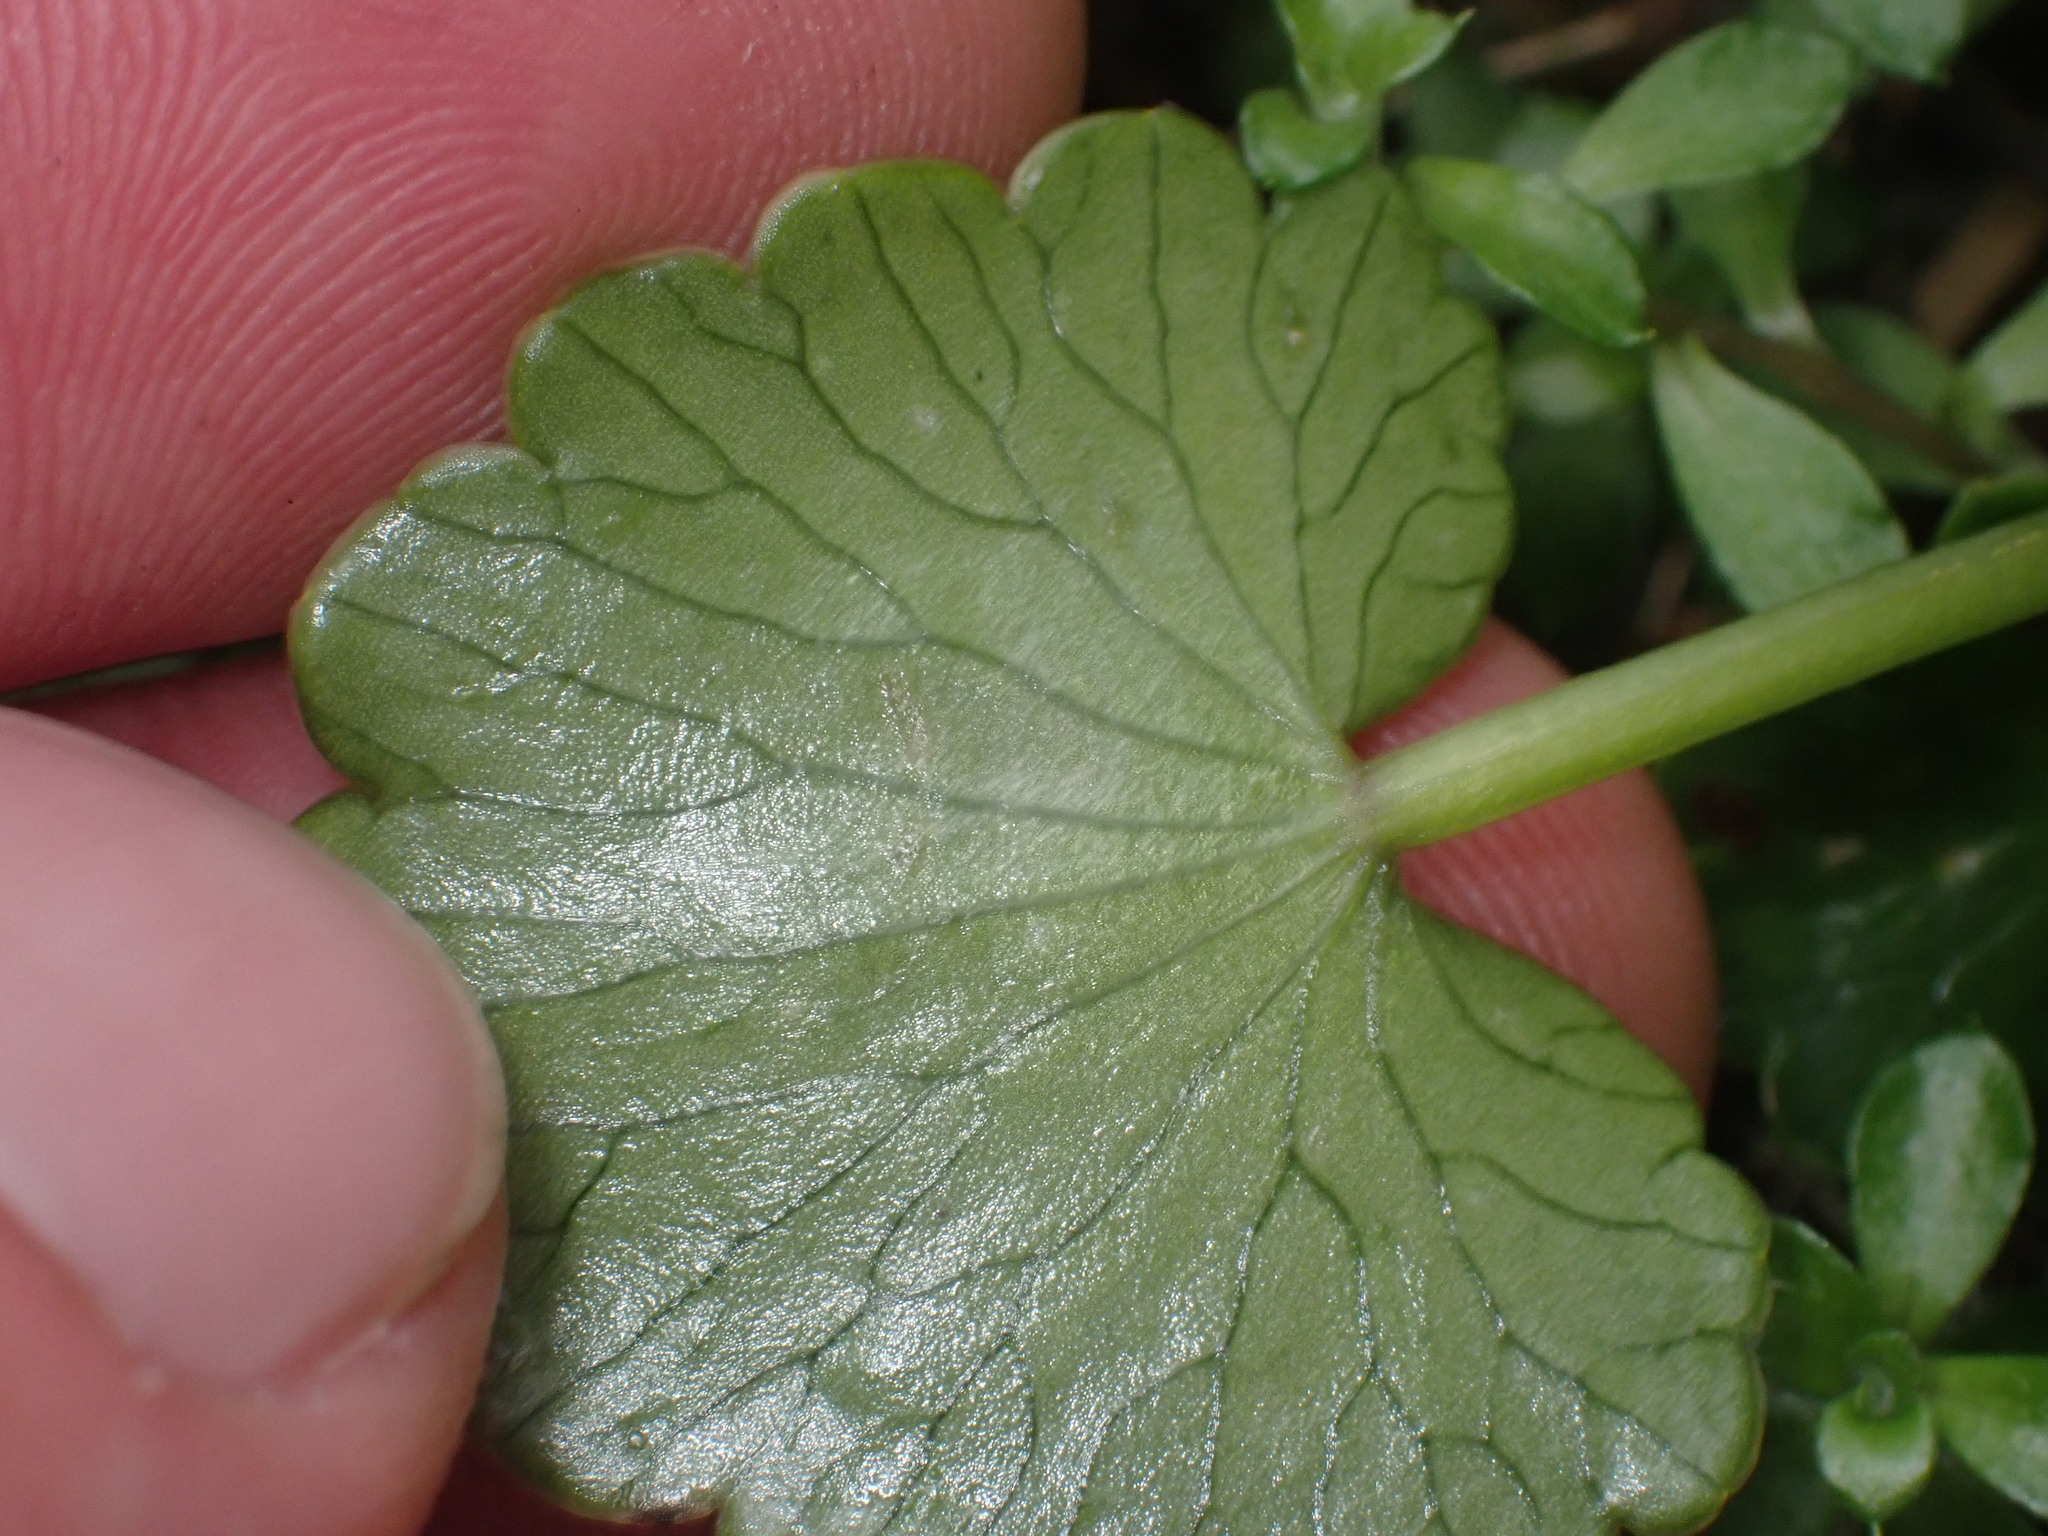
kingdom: Plantae
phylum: Tracheophyta
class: Magnoliopsida
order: Apiales
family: Apiaceae
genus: Azorella
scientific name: Azorella haastii
